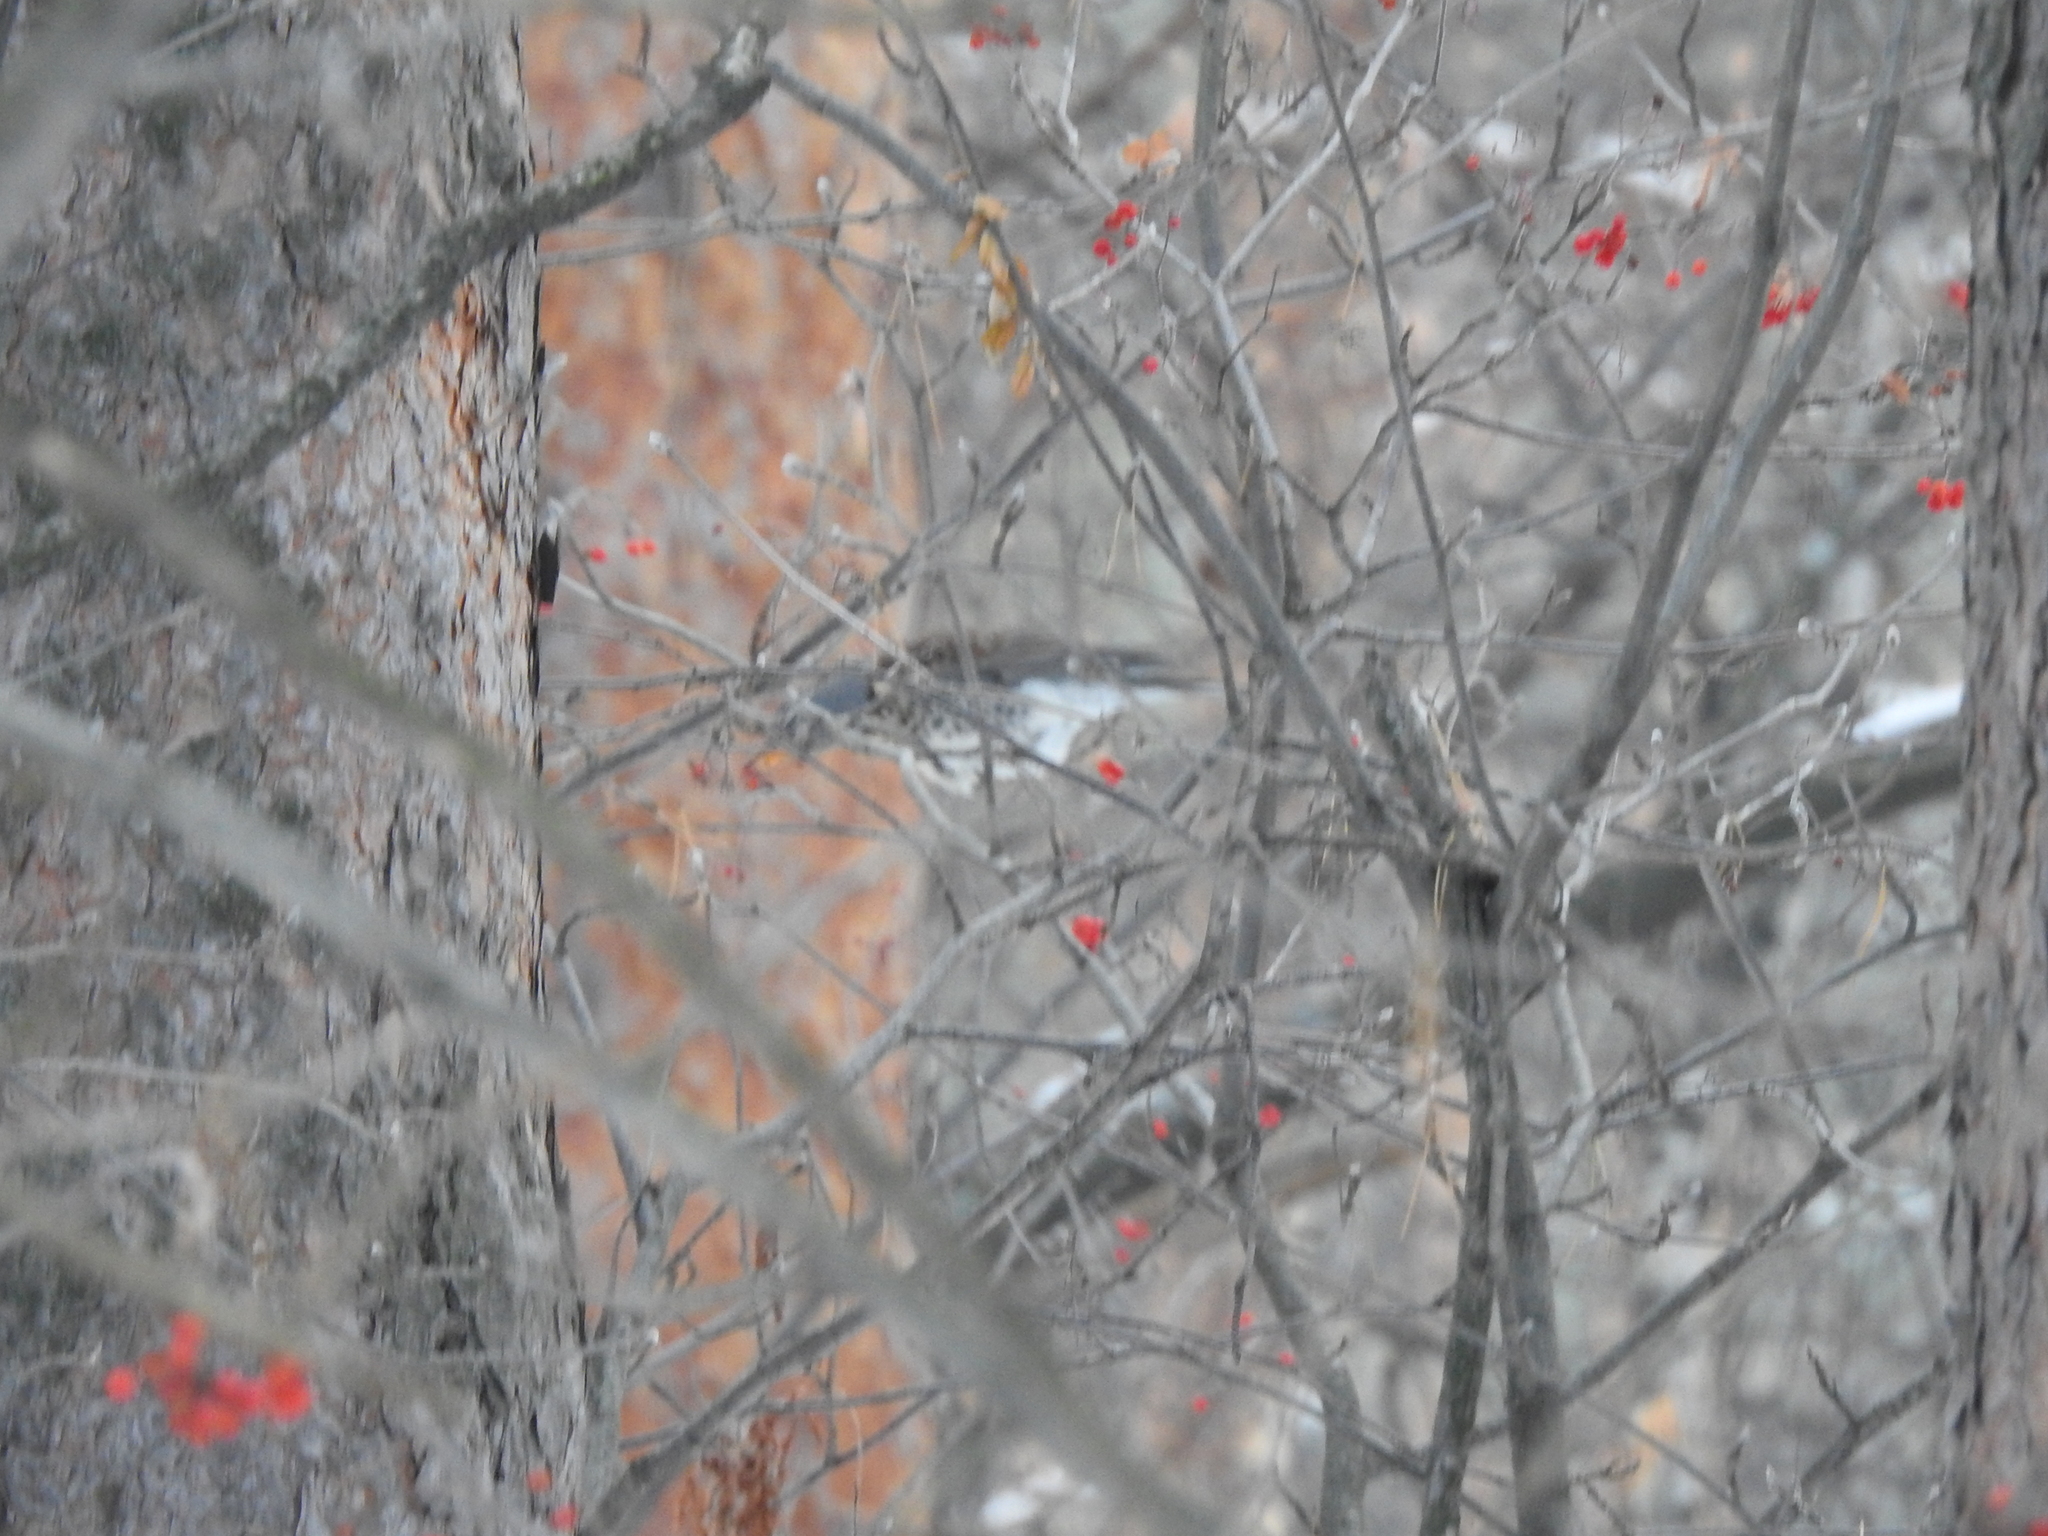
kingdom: Animalia
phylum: Chordata
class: Aves
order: Passeriformes
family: Turdidae
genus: Turdus
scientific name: Turdus pilaris
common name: Fieldfare
